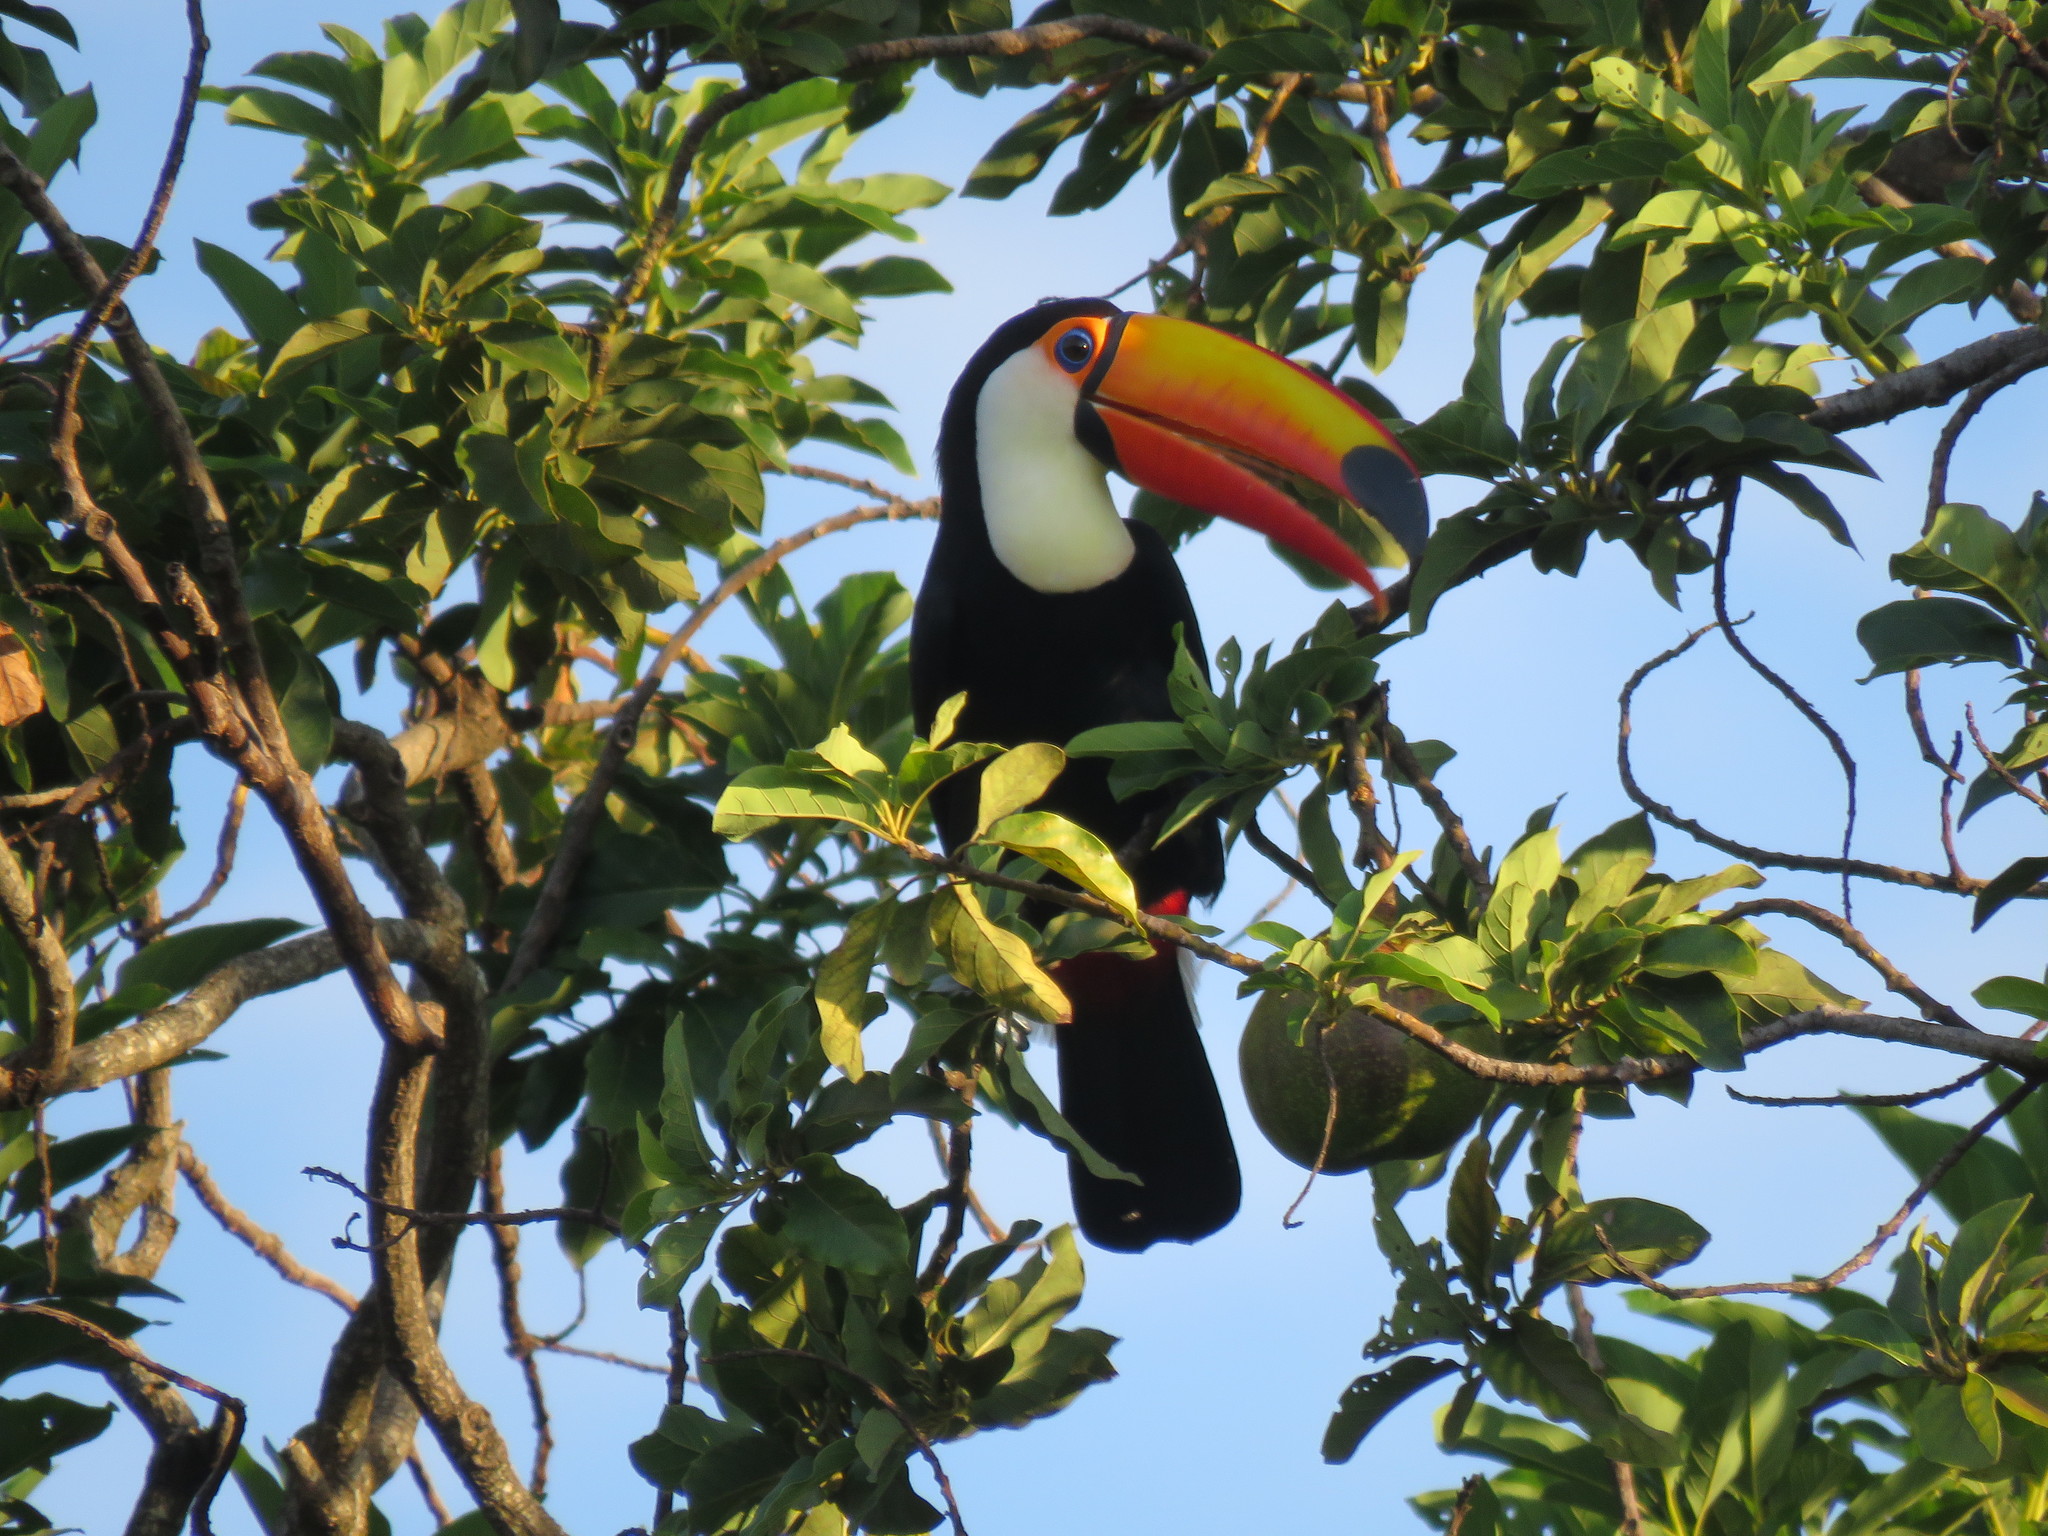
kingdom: Animalia
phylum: Chordata
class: Aves
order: Piciformes
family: Ramphastidae
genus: Ramphastos
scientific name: Ramphastos toco
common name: Toco toucan
